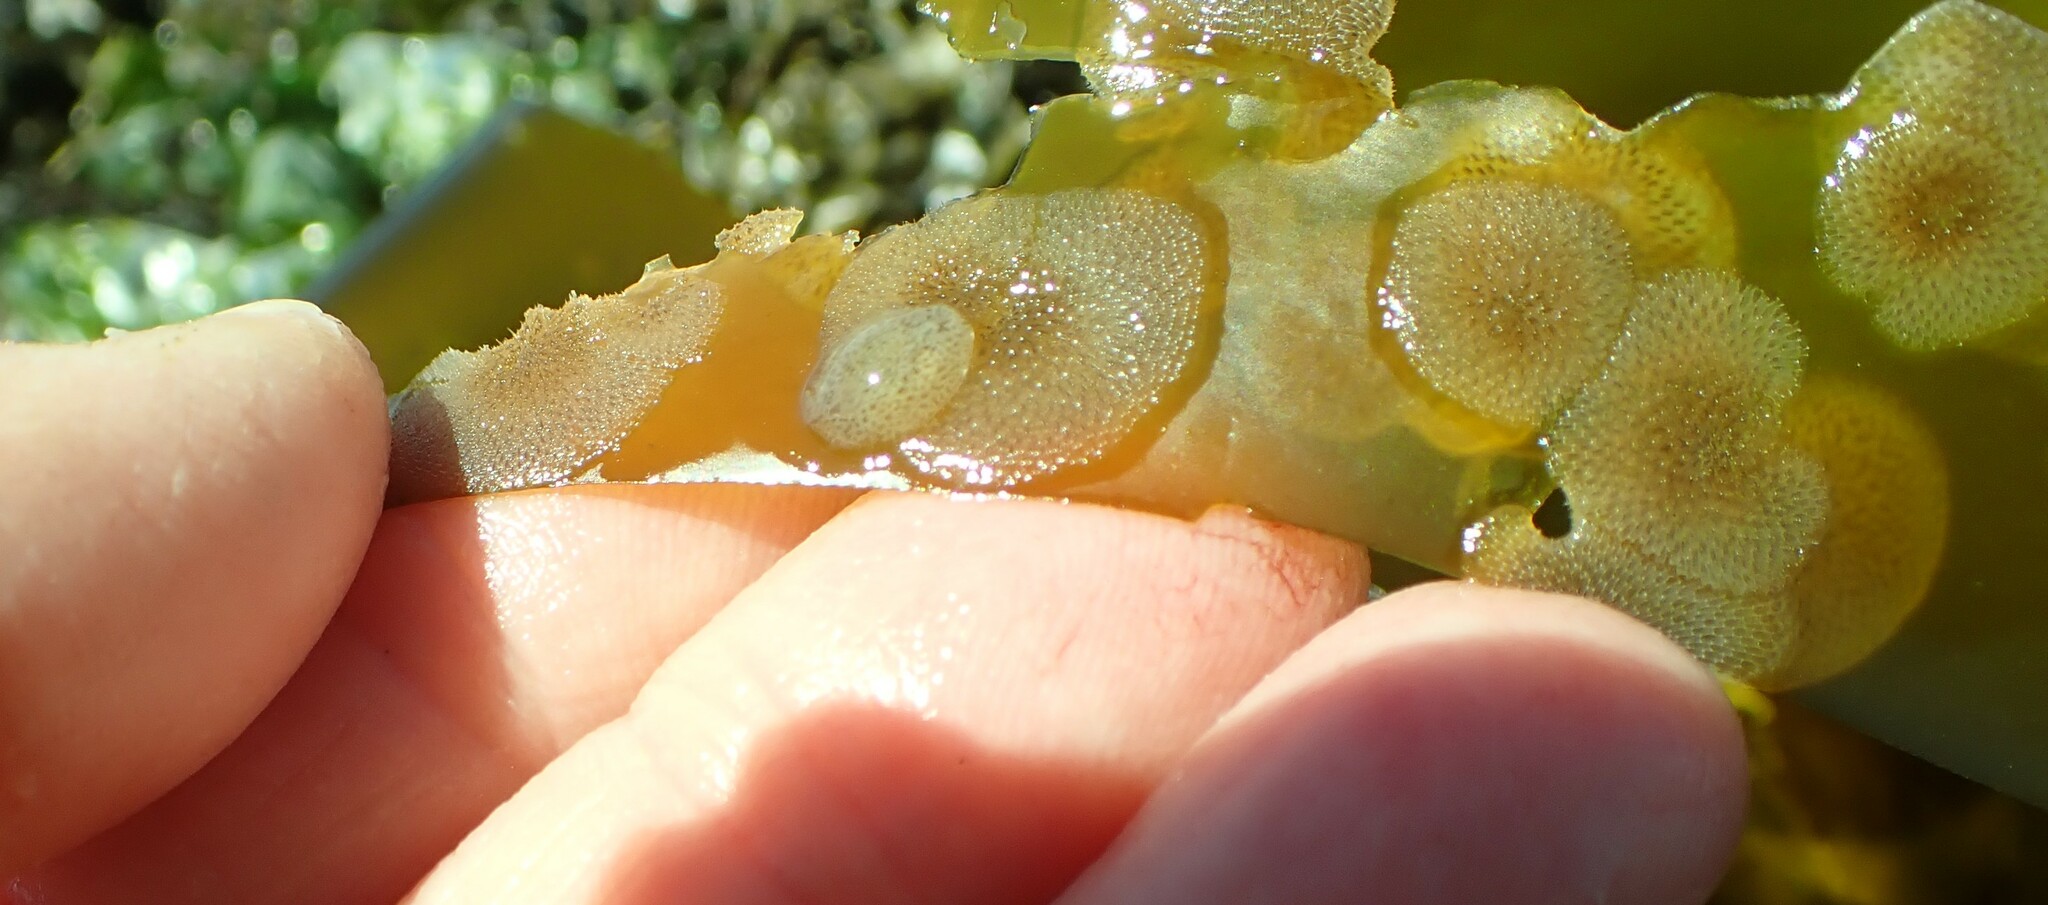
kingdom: Animalia
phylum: Mollusca
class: Gastropoda
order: Nudibranchia
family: Corambidae
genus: Corambe
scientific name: Corambe steinbergae
